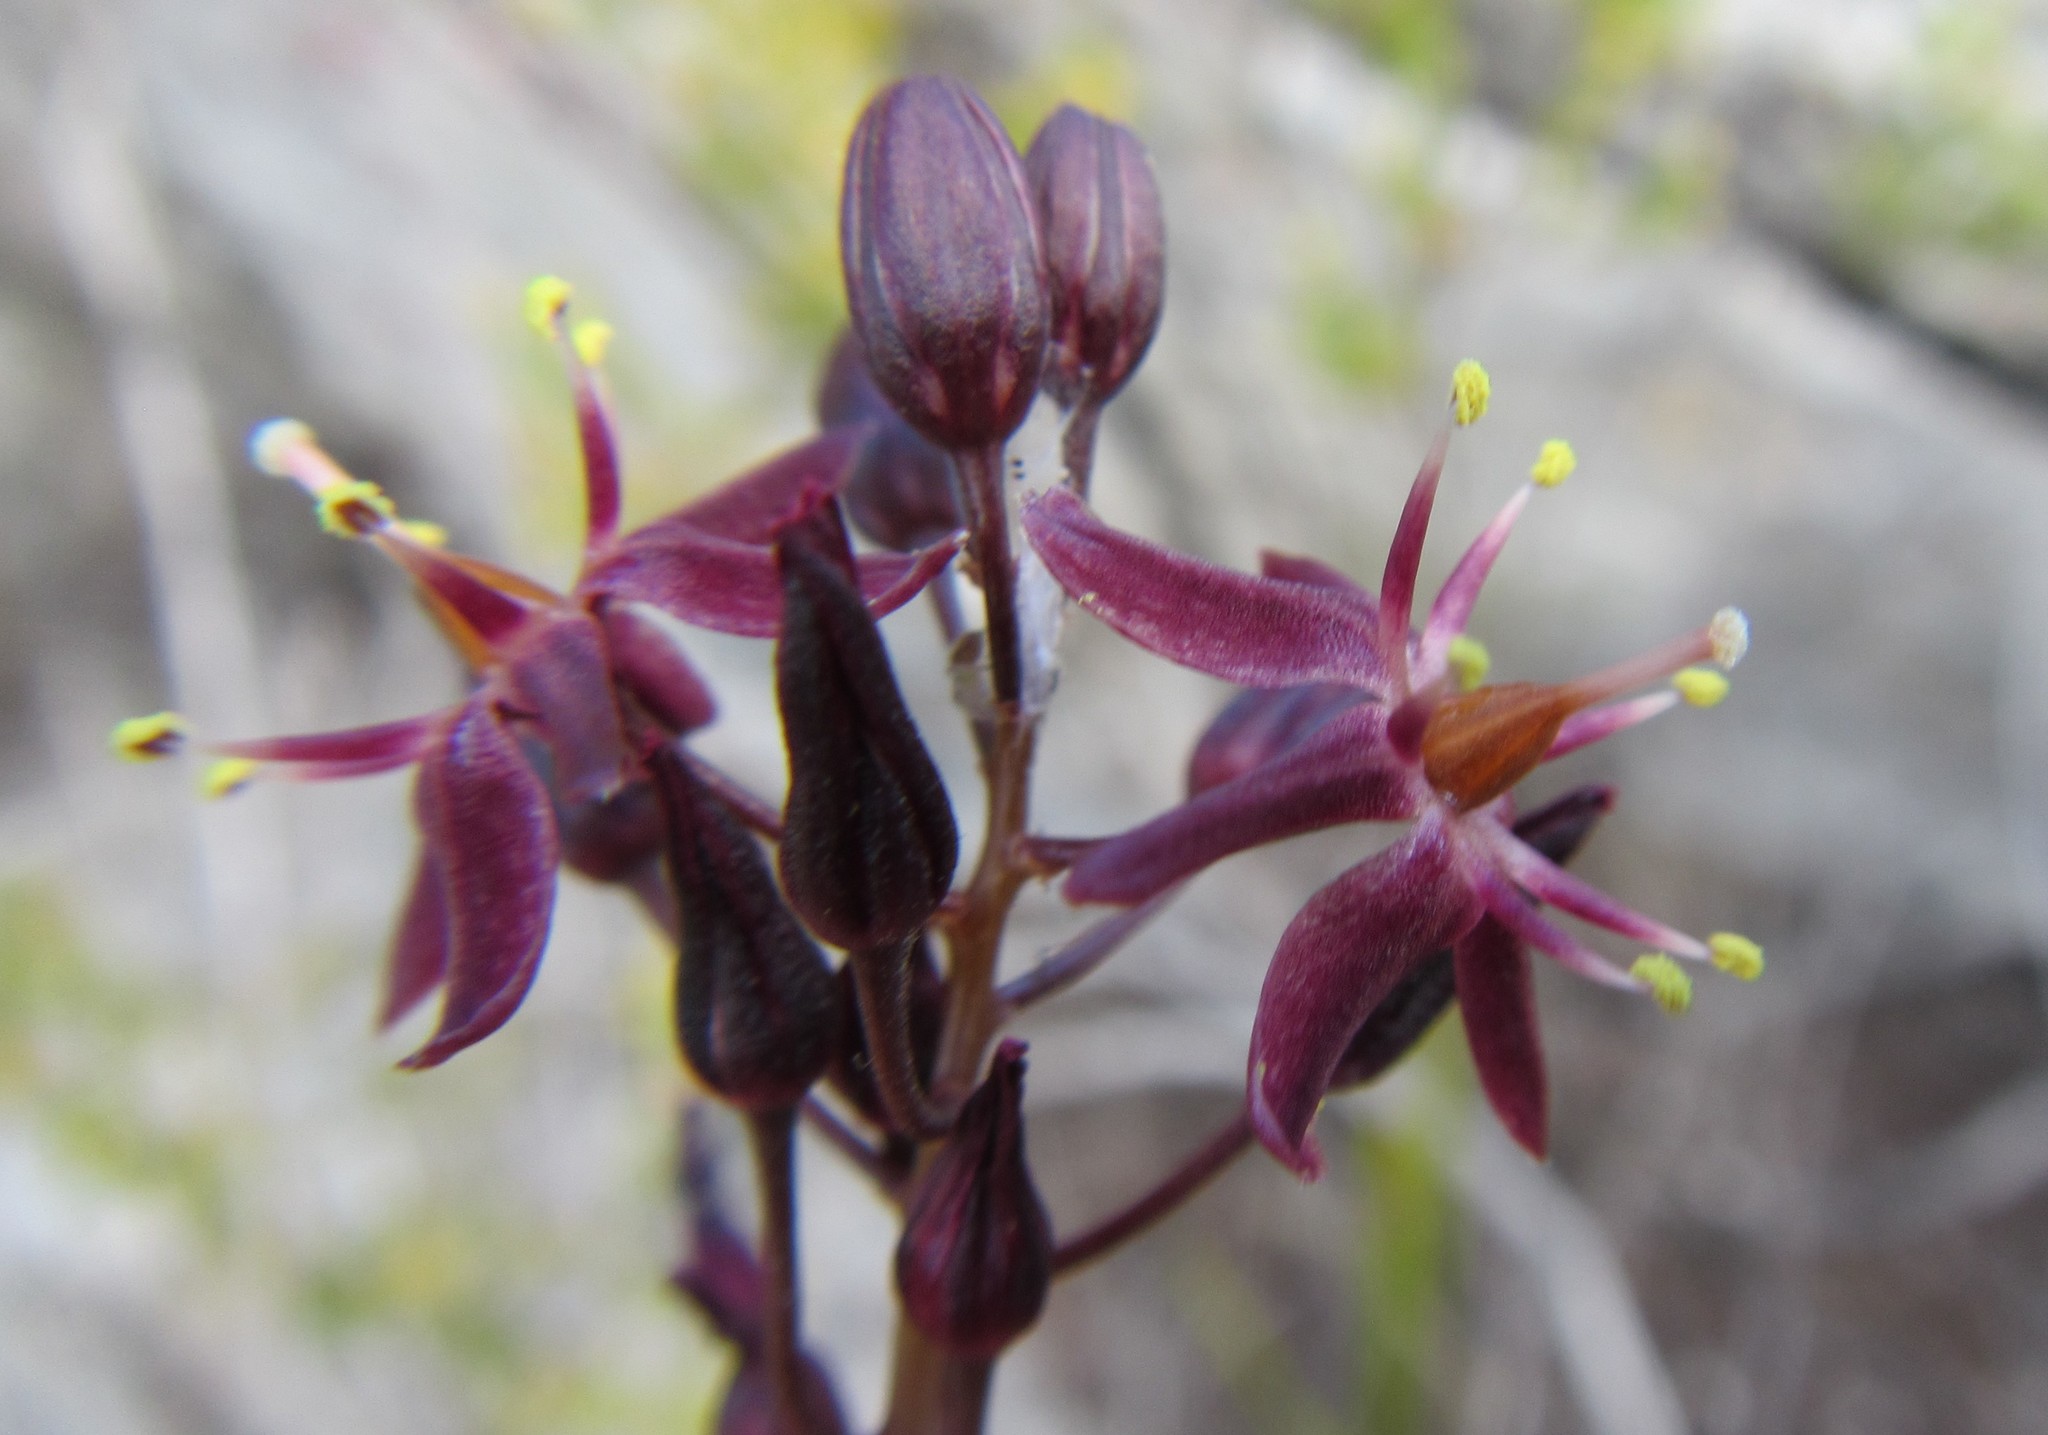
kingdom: Plantae
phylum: Tracheophyta
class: Liliopsida
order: Asparagales
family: Asparagaceae
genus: Drimia
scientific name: Drimia salteri
